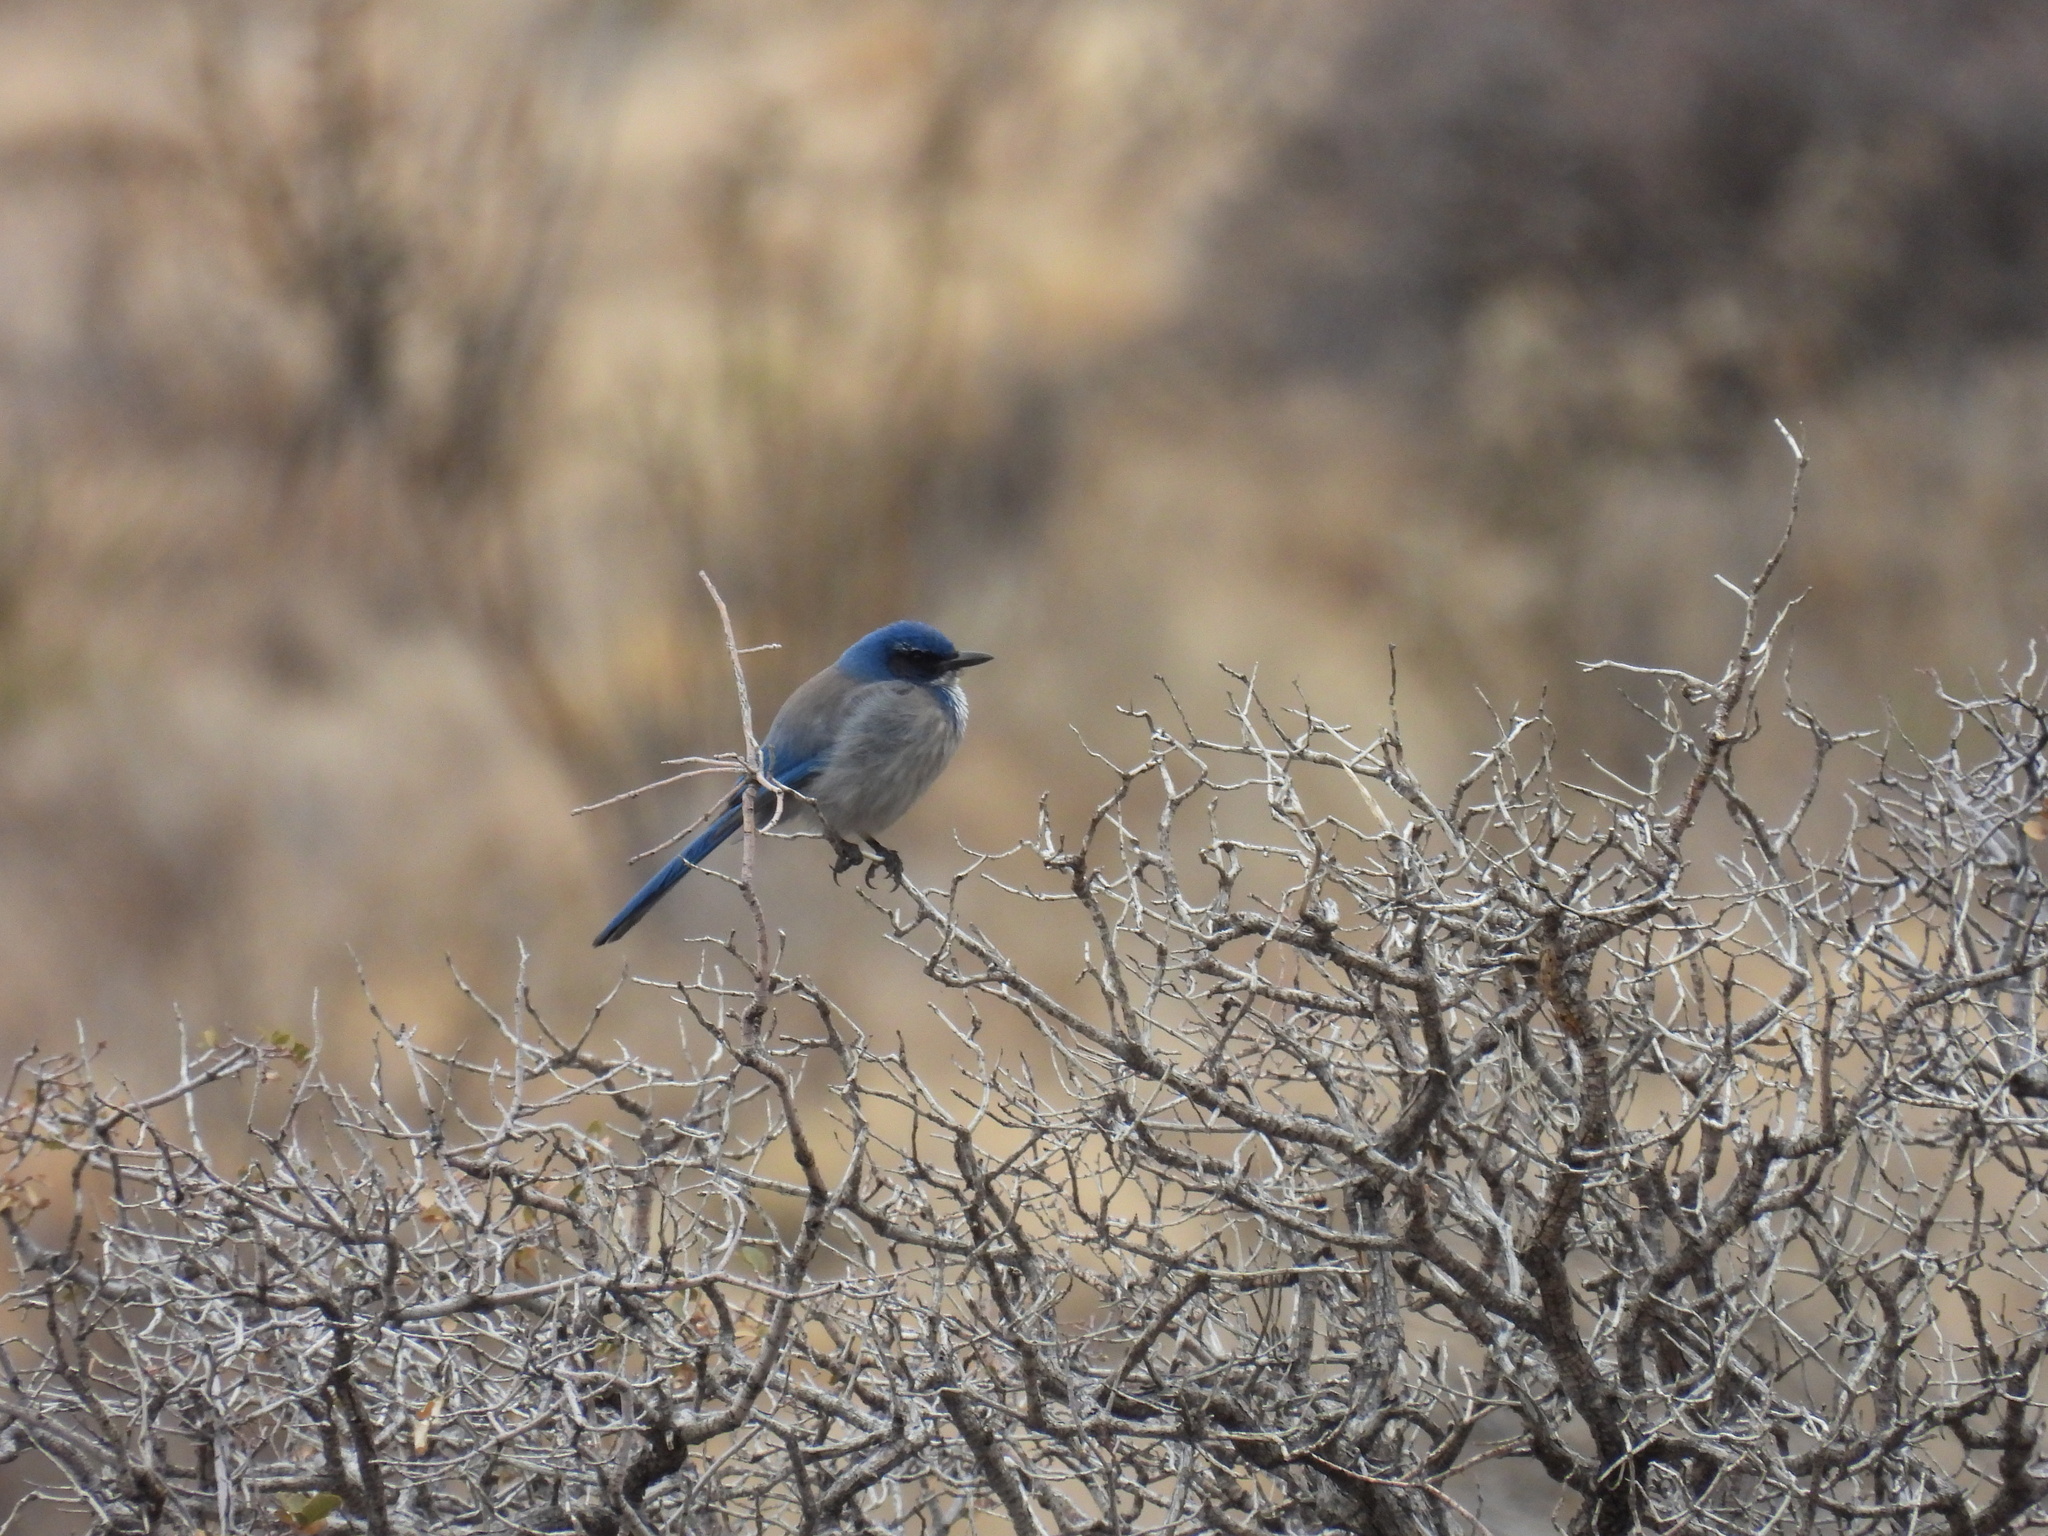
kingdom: Animalia
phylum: Chordata
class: Aves
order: Passeriformes
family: Corvidae
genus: Aphelocoma
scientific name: Aphelocoma woodhouseii
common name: Woodhouse's scrub-jay
